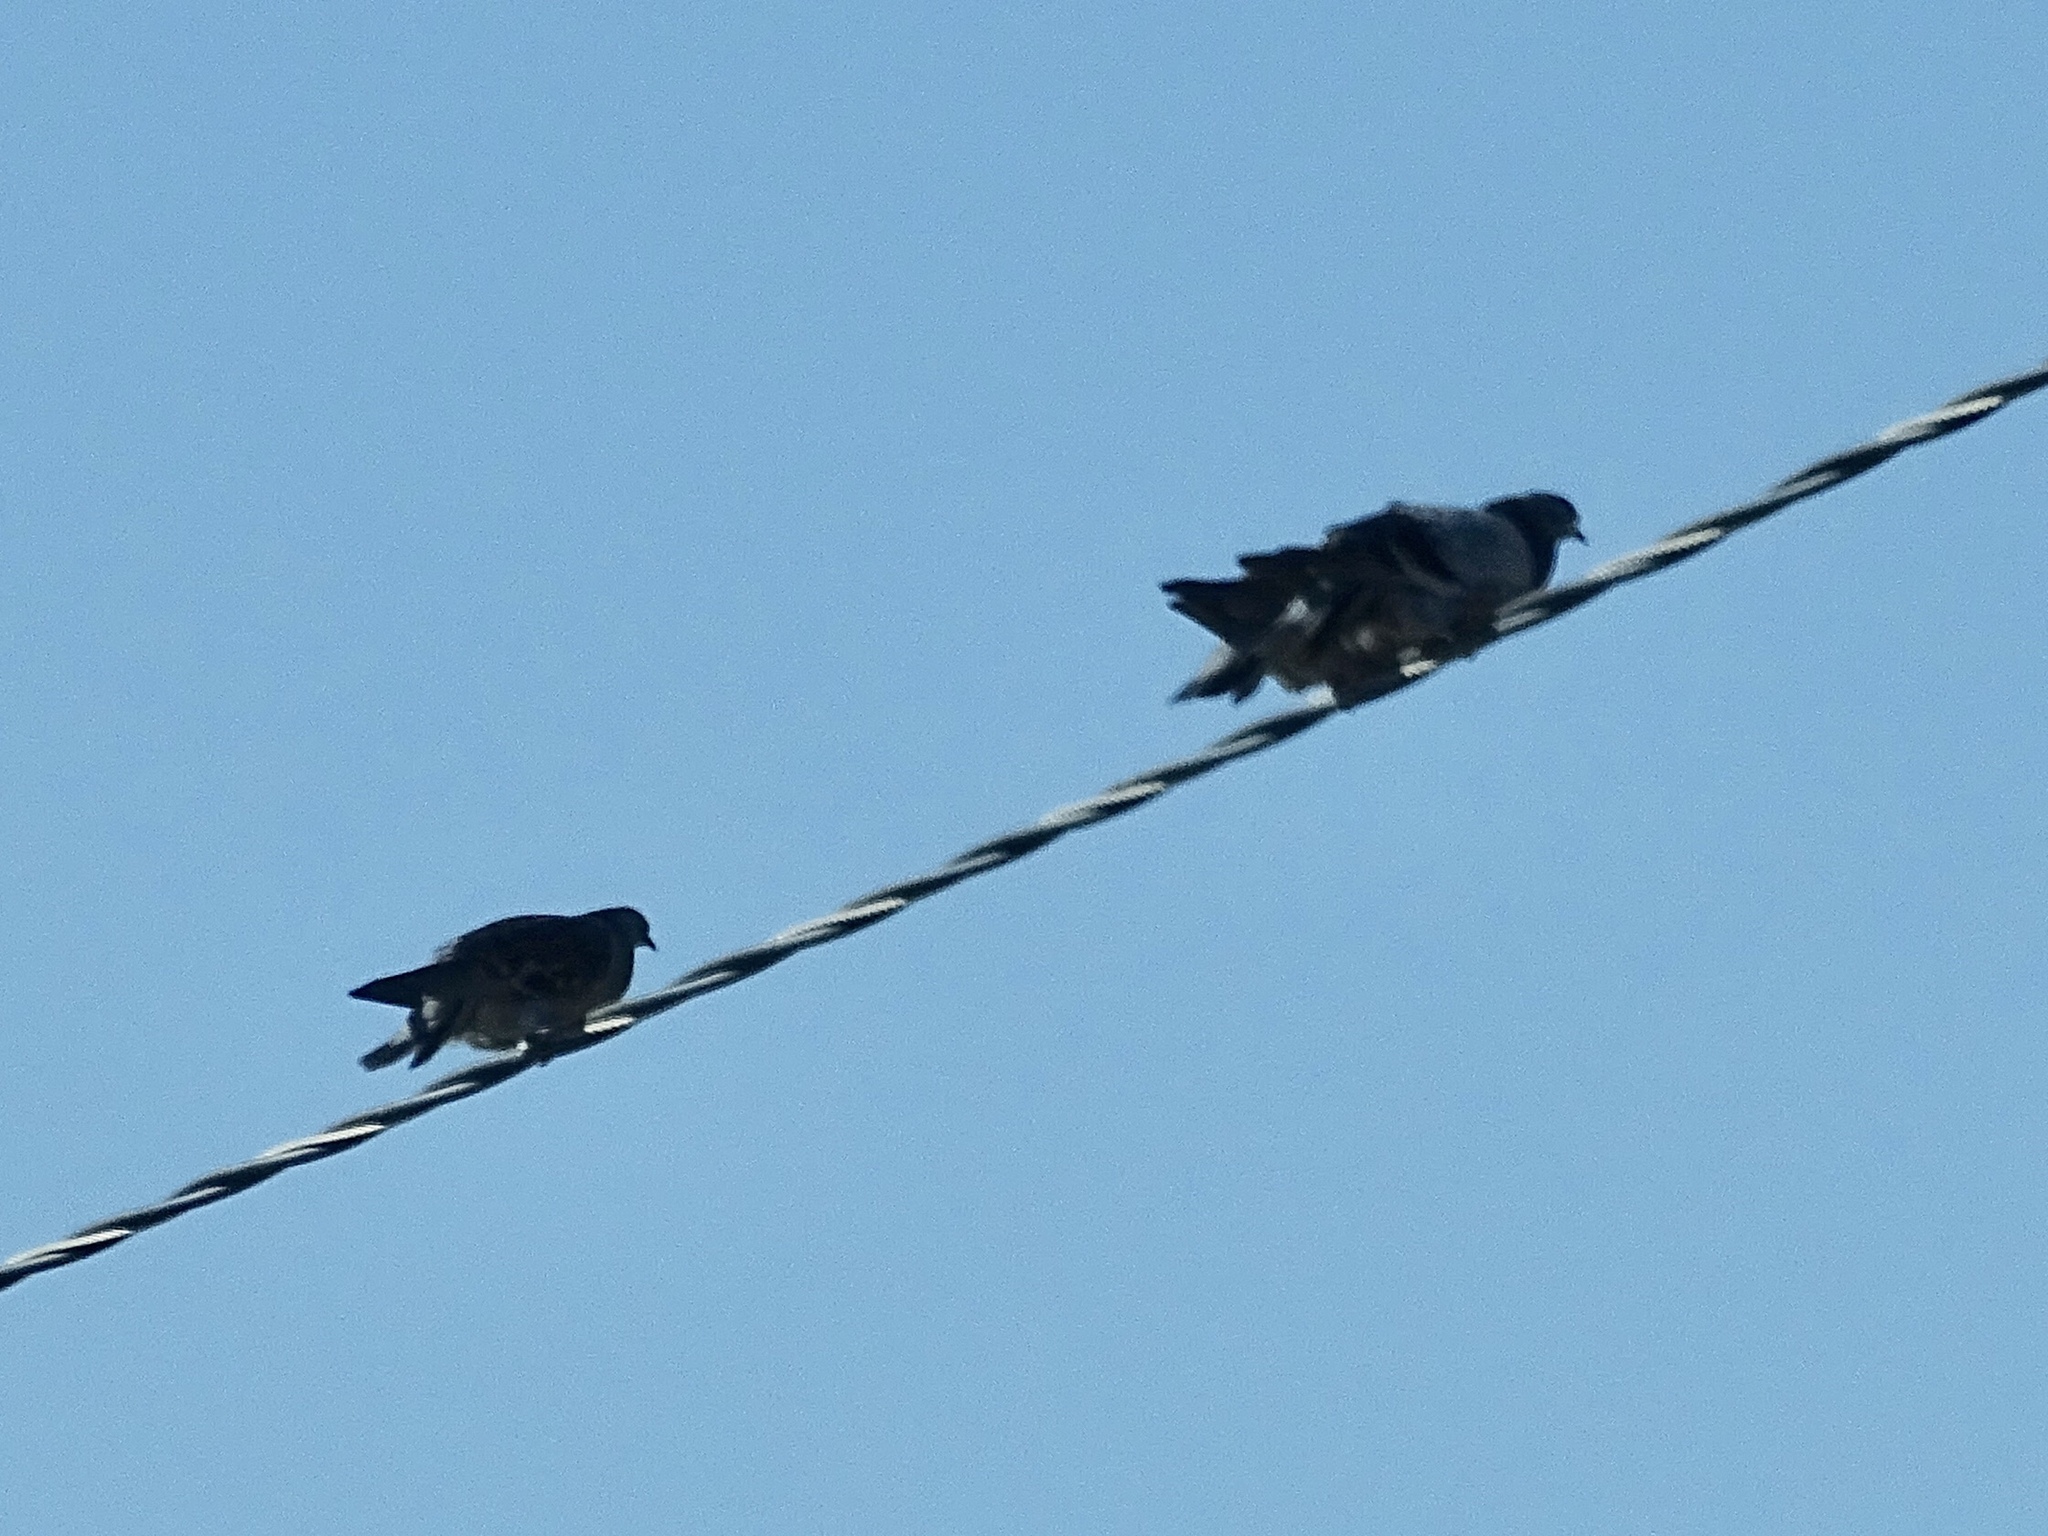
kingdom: Animalia
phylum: Chordata
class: Aves
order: Columbiformes
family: Columbidae
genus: Columba
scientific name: Columba livia
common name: Rock pigeon
